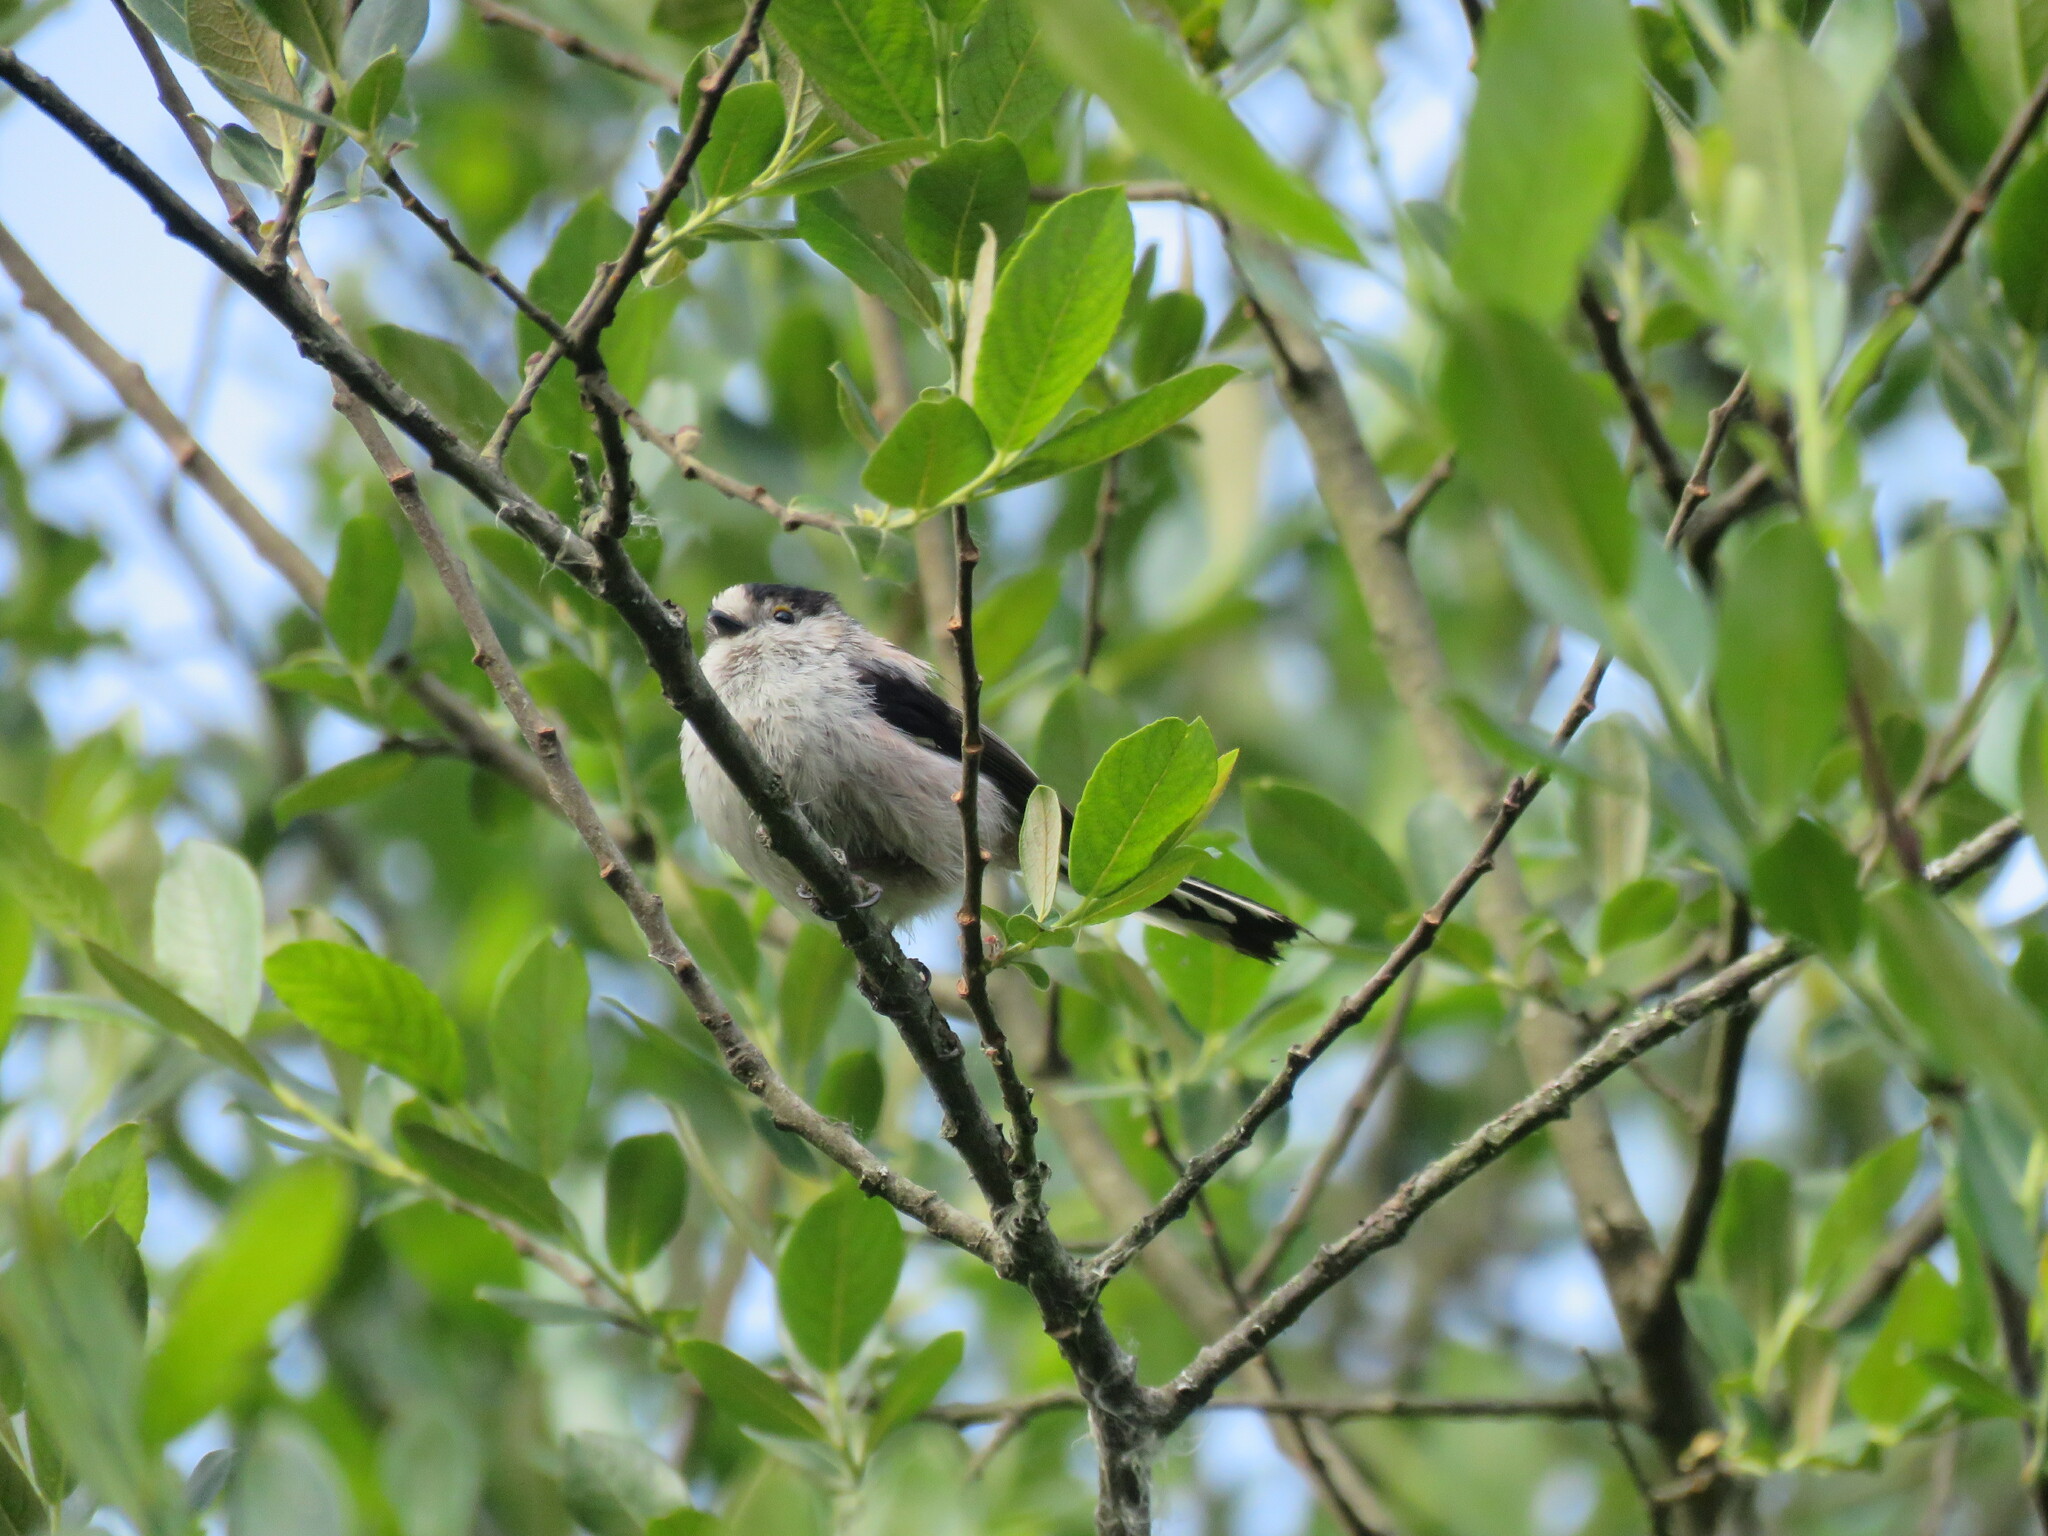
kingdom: Animalia
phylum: Chordata
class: Aves
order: Passeriformes
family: Aegithalidae
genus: Aegithalos
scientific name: Aegithalos caudatus
